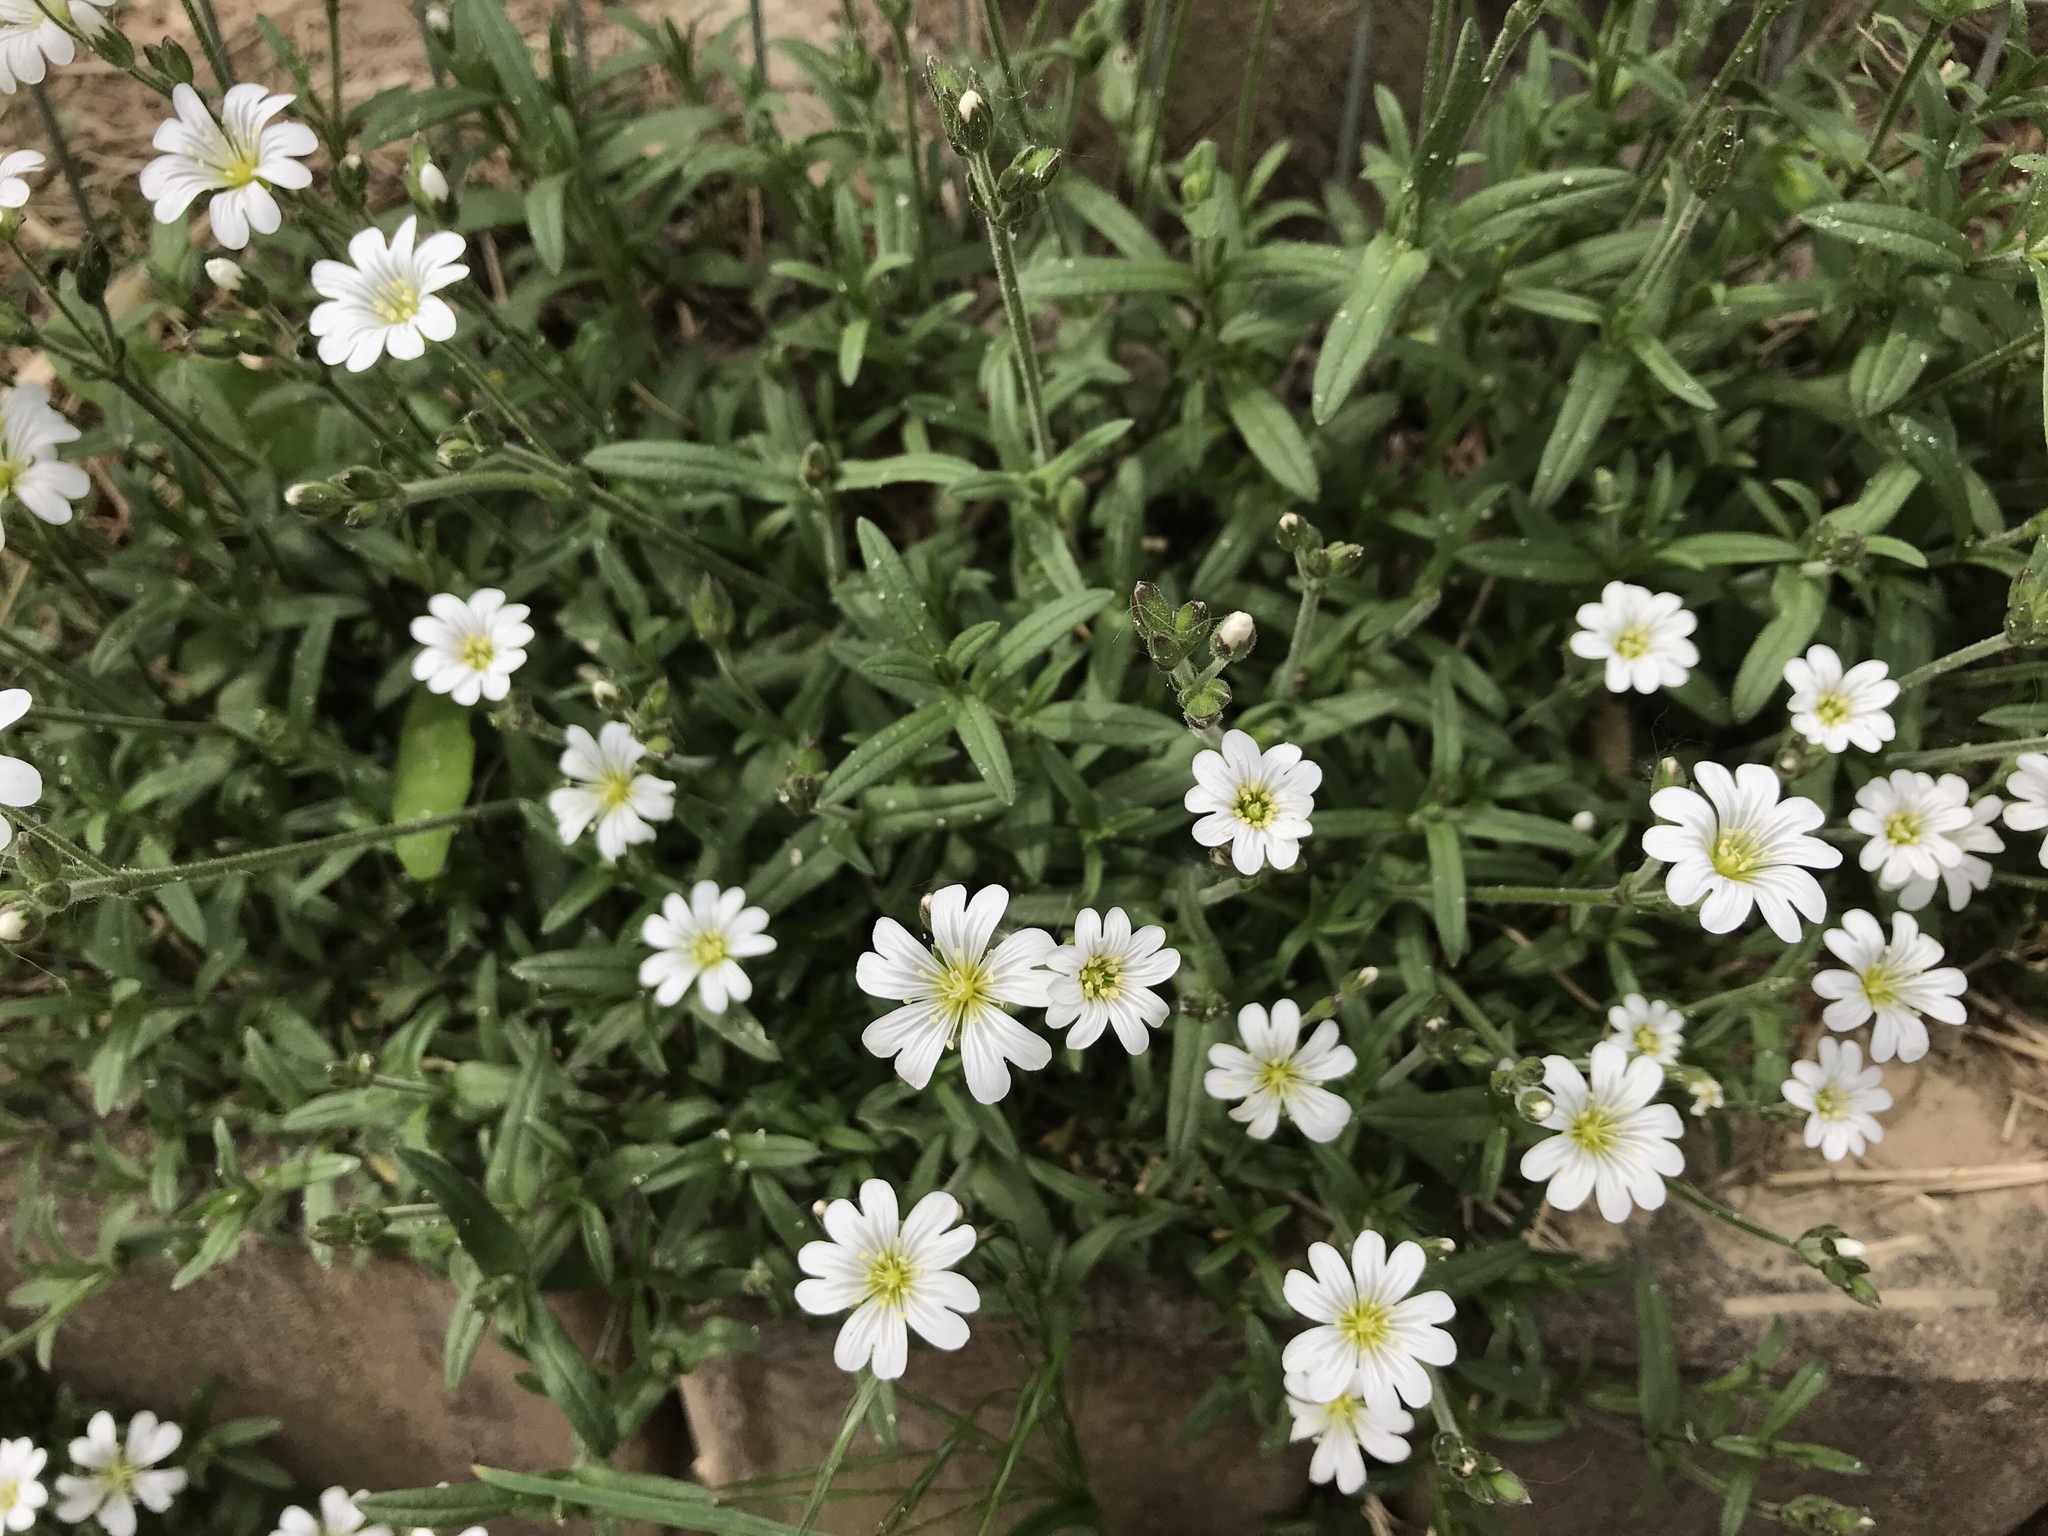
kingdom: Plantae
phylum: Tracheophyta
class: Magnoliopsida
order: Caryophyllales
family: Caryophyllaceae
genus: Cerastium
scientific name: Cerastium arvense
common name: Field mouse-ear
